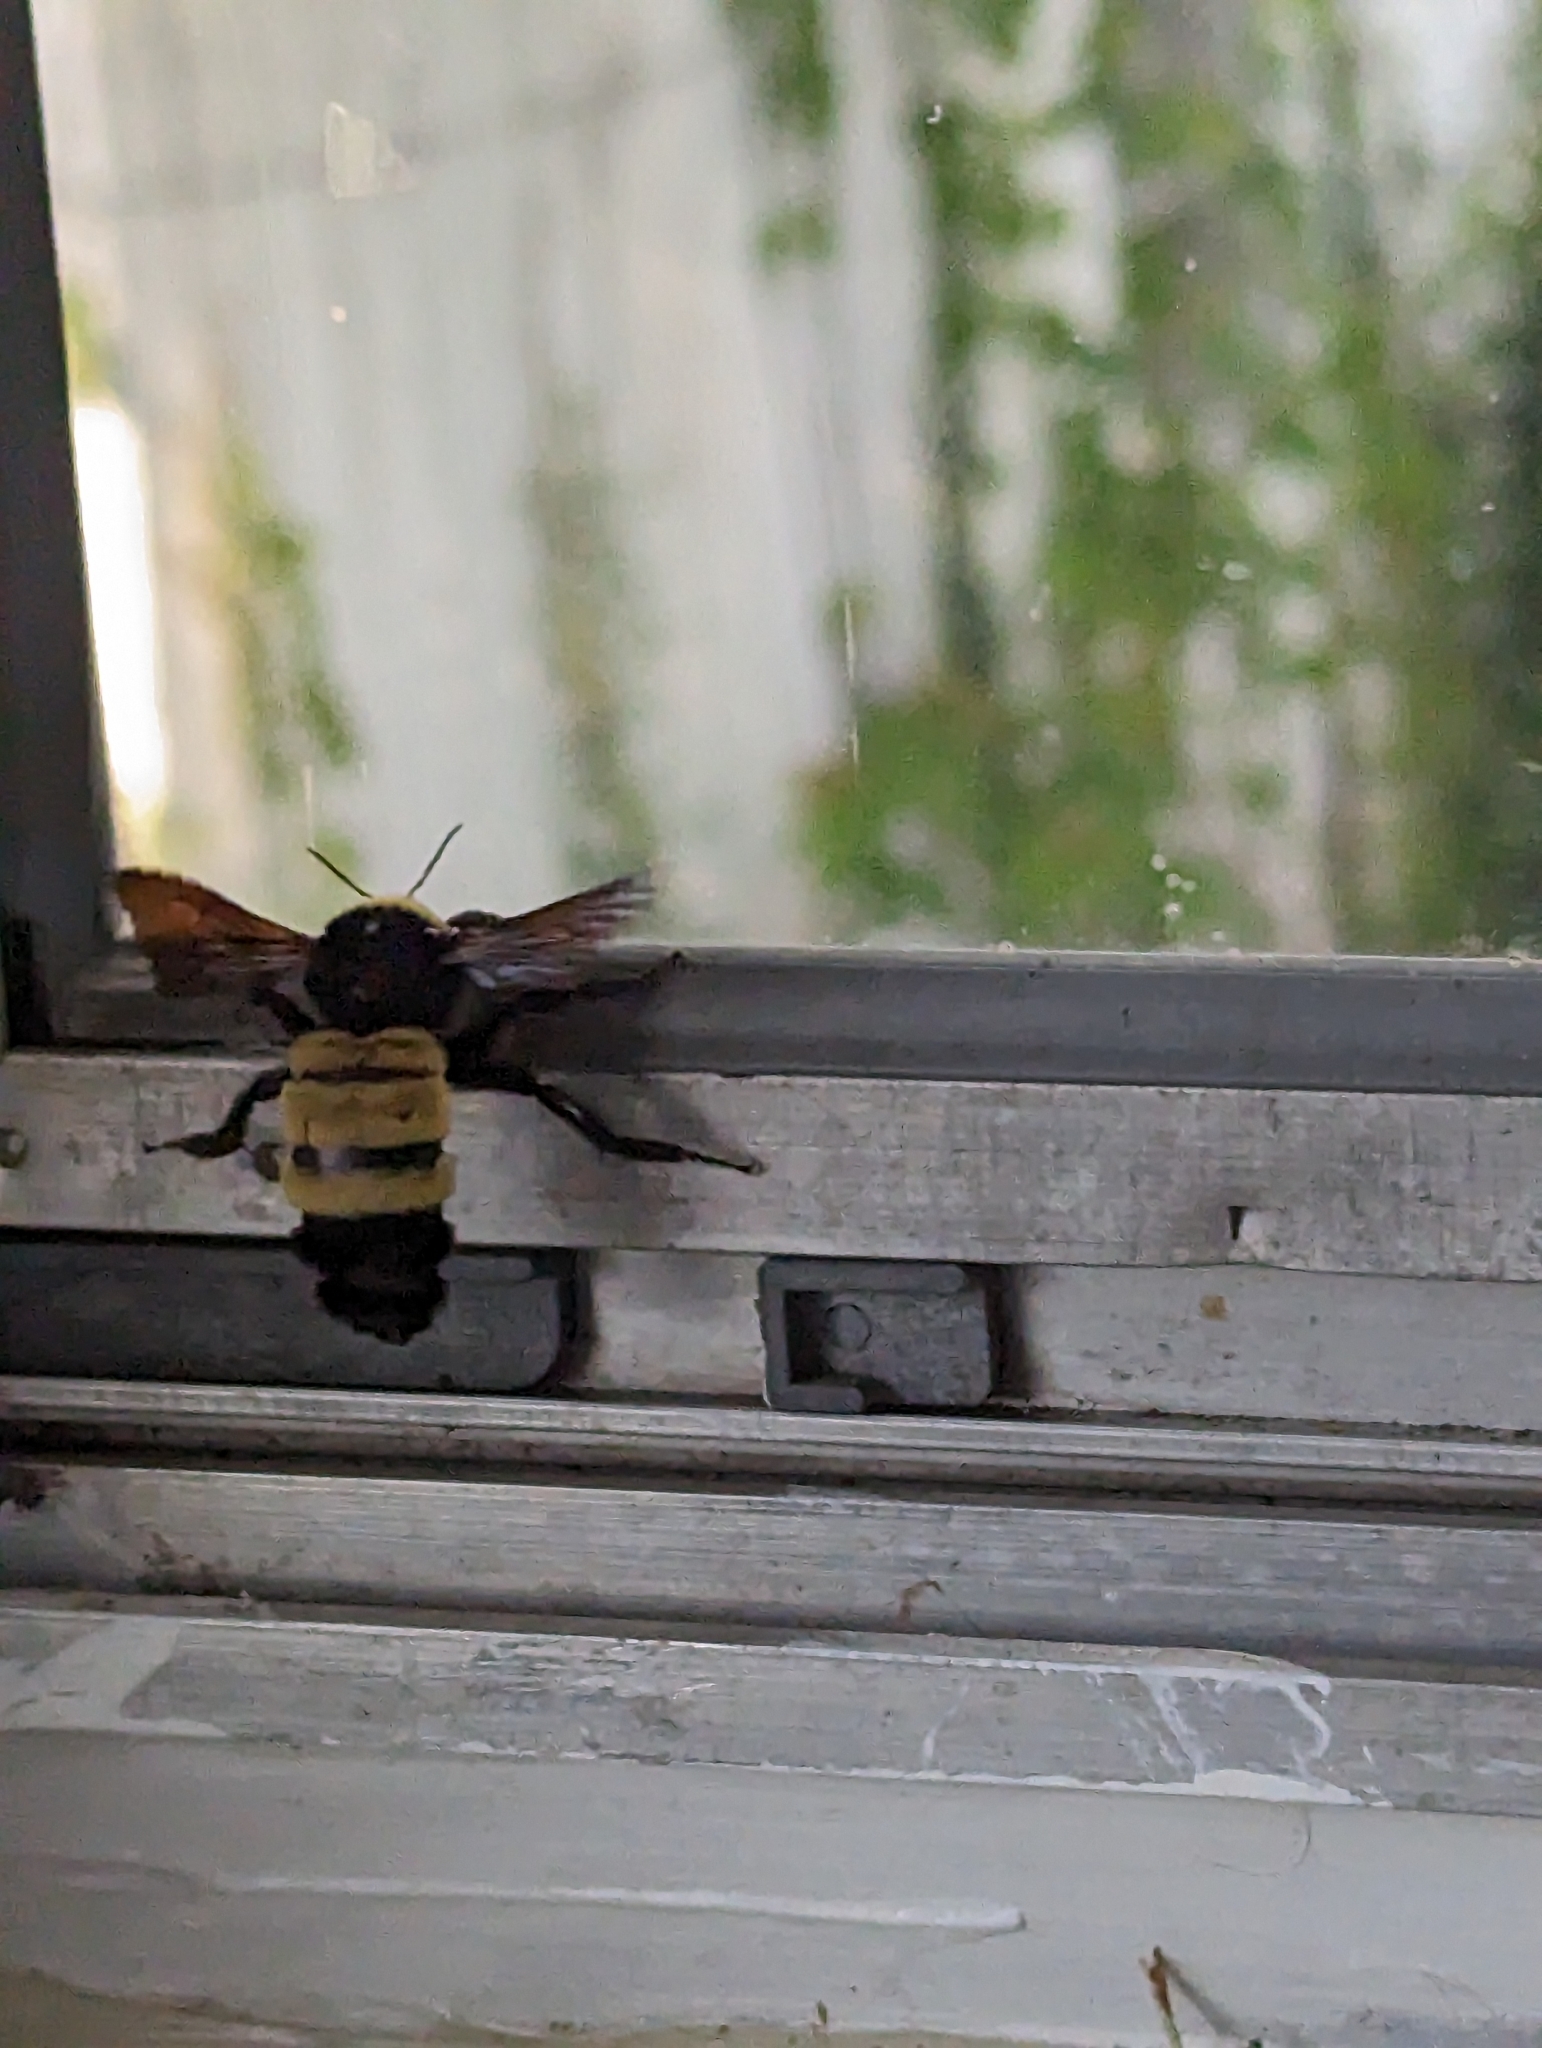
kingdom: Animalia
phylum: Arthropoda
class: Insecta
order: Hymenoptera
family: Apidae
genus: Bombus
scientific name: Bombus pensylvanicus
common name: Bumble bee
